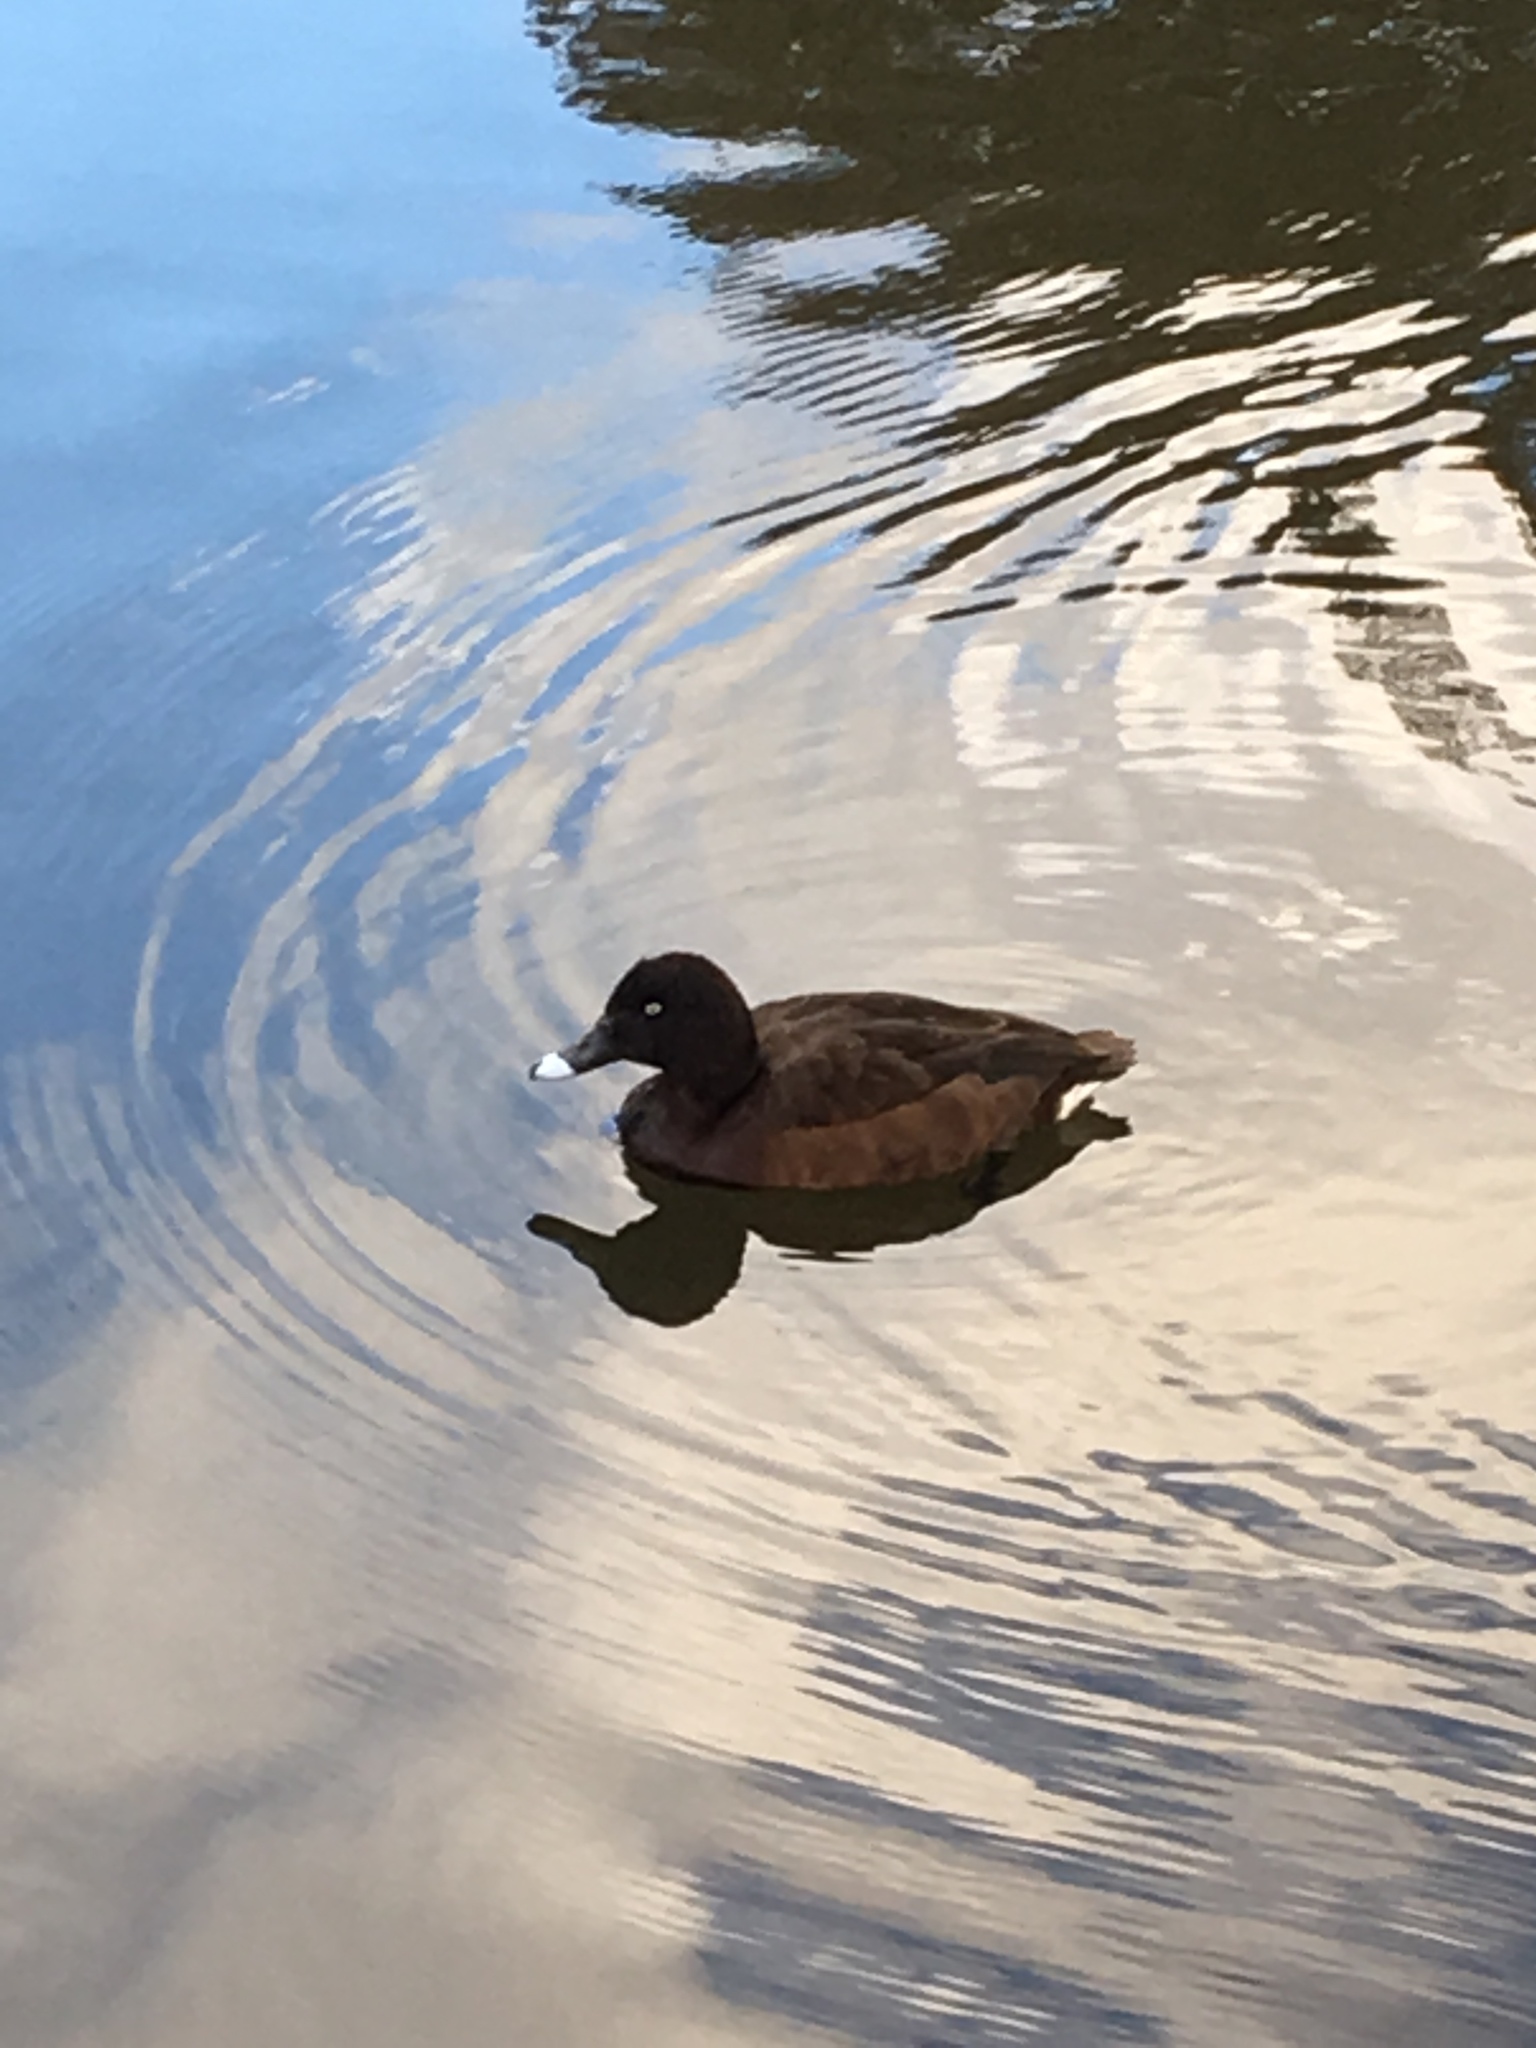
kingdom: Animalia
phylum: Chordata
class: Aves
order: Anseriformes
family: Anatidae
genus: Aythya
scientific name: Aythya australis
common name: Hardhead
